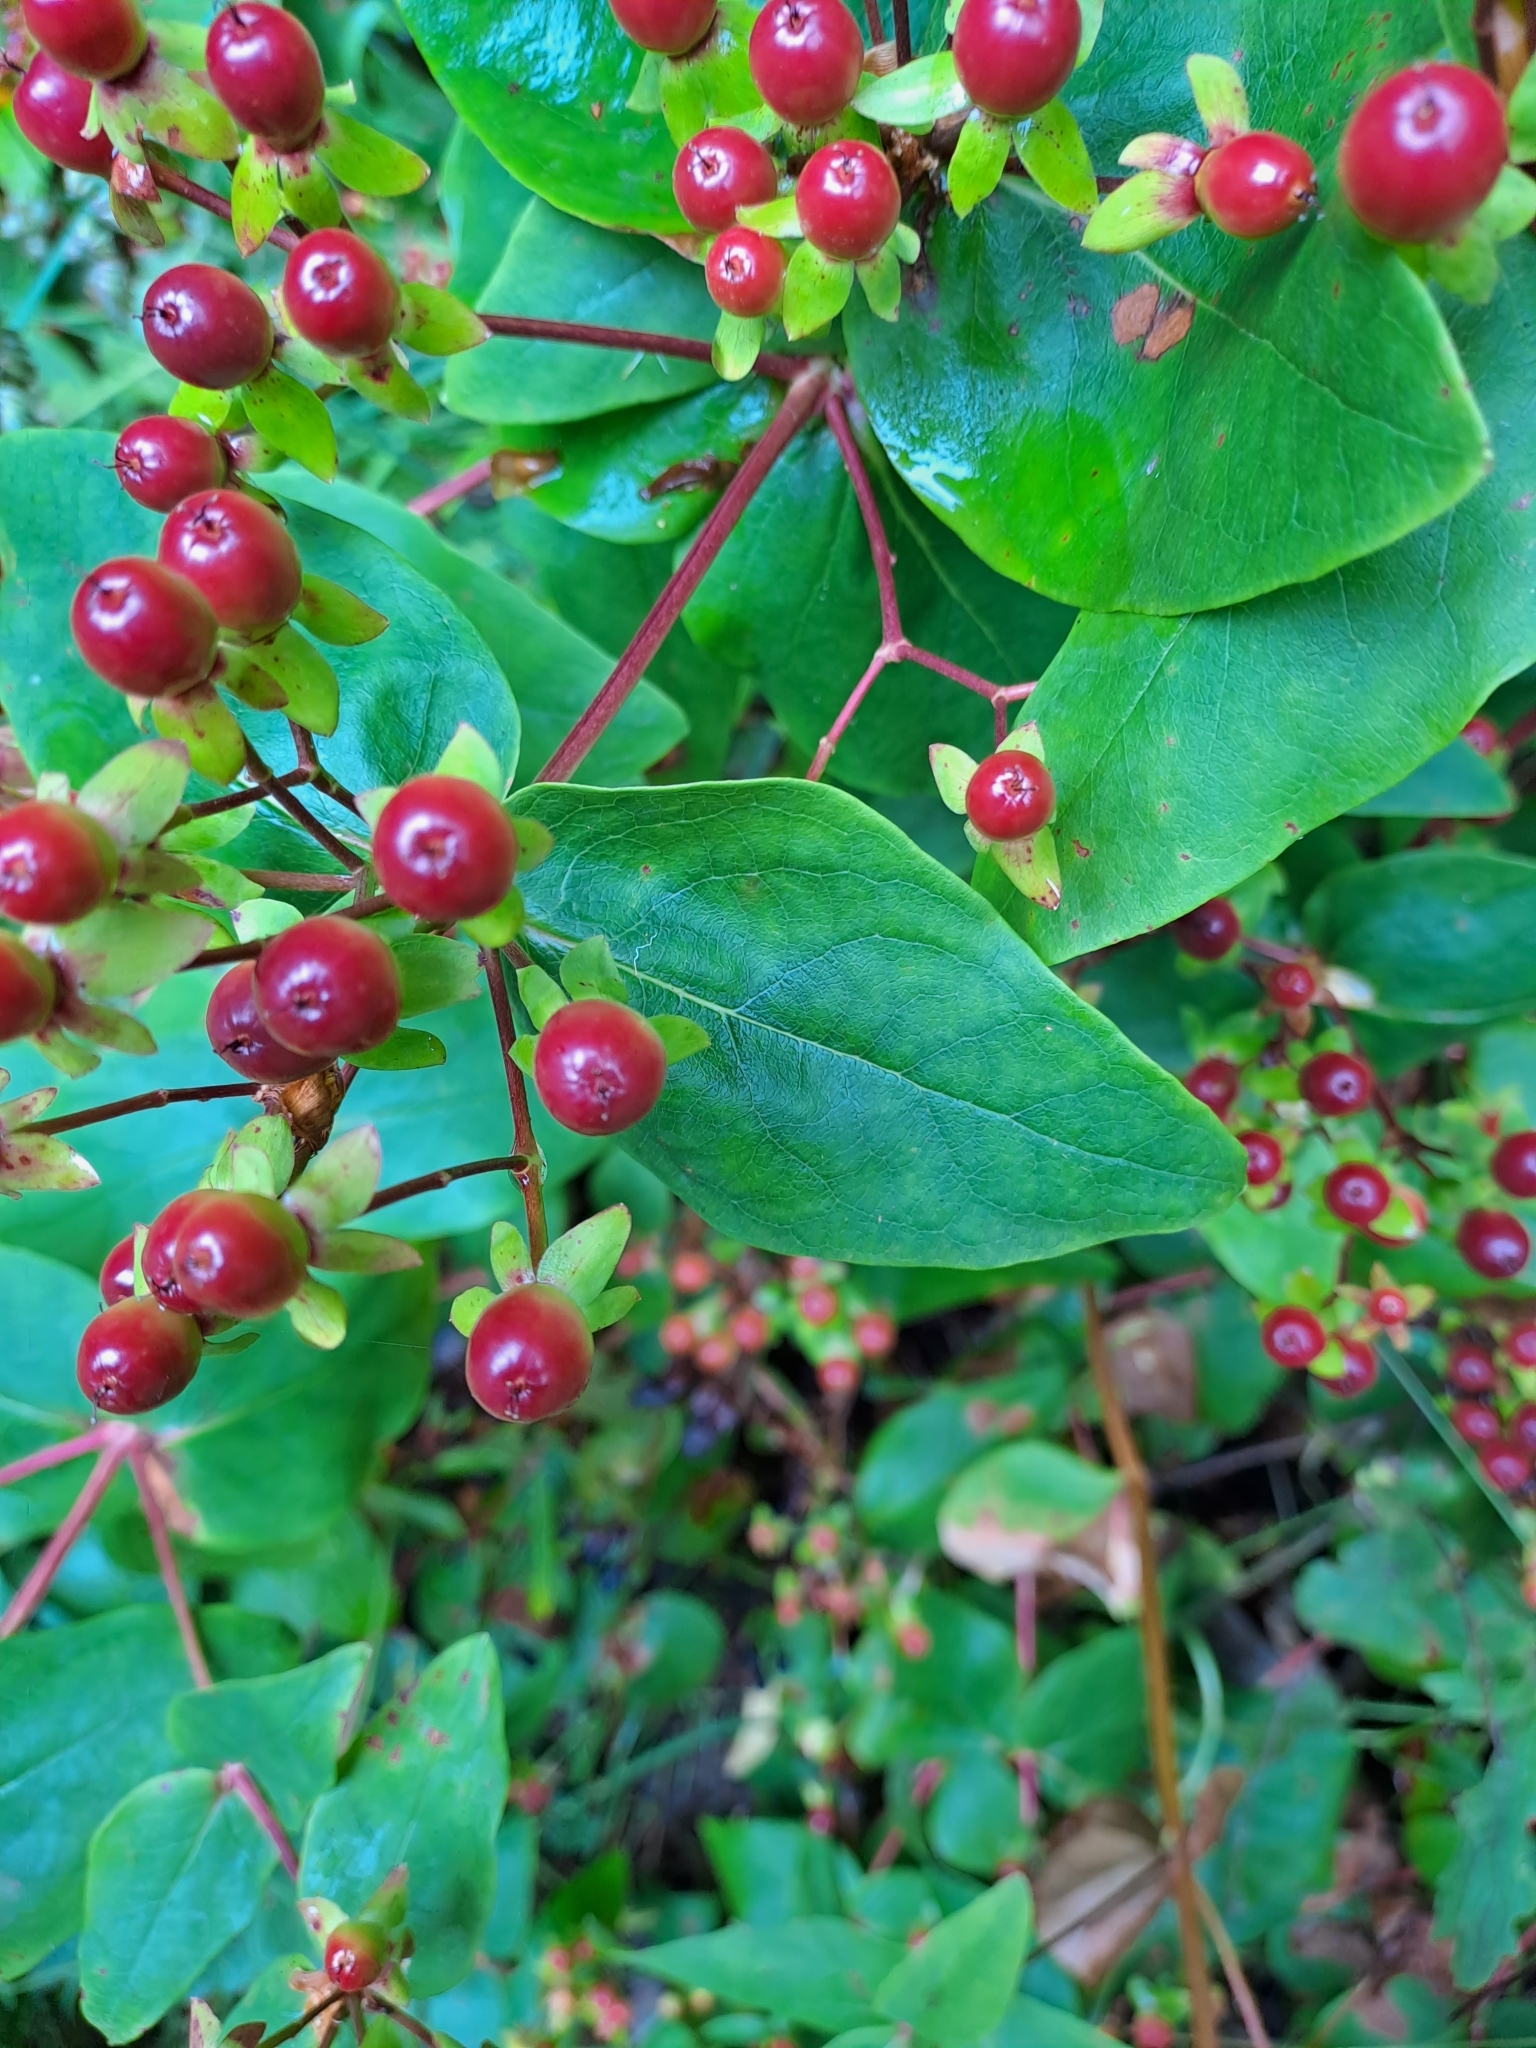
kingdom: Plantae
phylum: Tracheophyta
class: Magnoliopsida
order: Malpighiales
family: Hypericaceae
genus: Hypericum
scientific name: Hypericum androsaemum
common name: Sweet-amber
